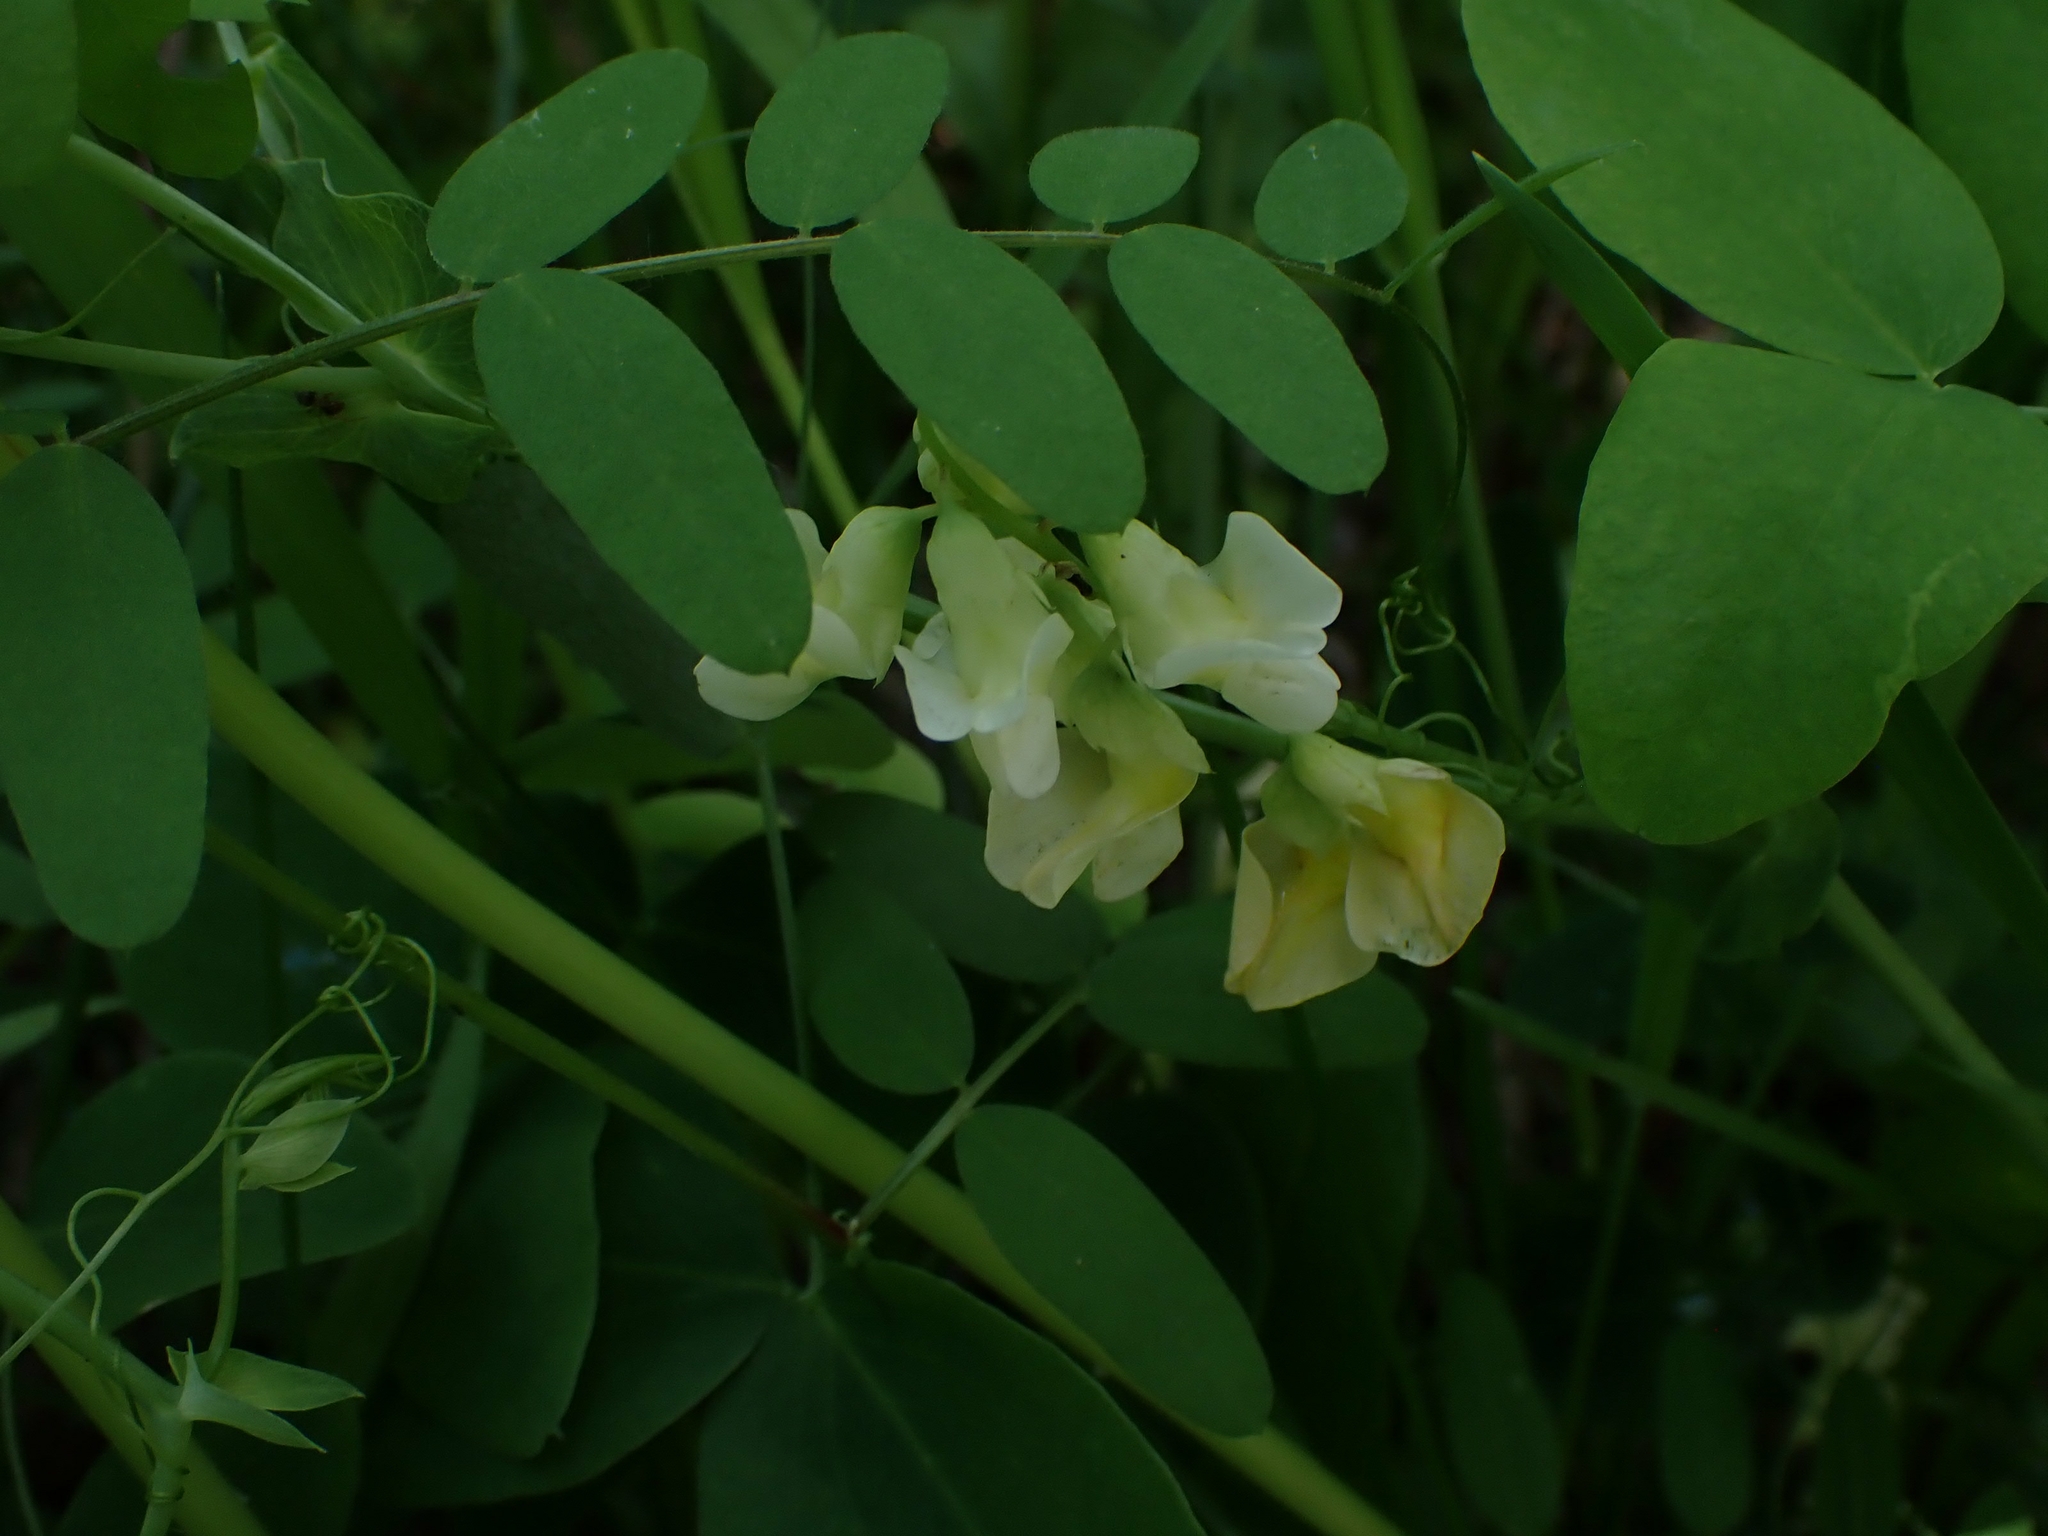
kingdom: Plantae
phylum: Tracheophyta
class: Magnoliopsida
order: Fabales
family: Fabaceae
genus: Lathyrus
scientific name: Lathyrus ochroleucus
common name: Pale vetchling
